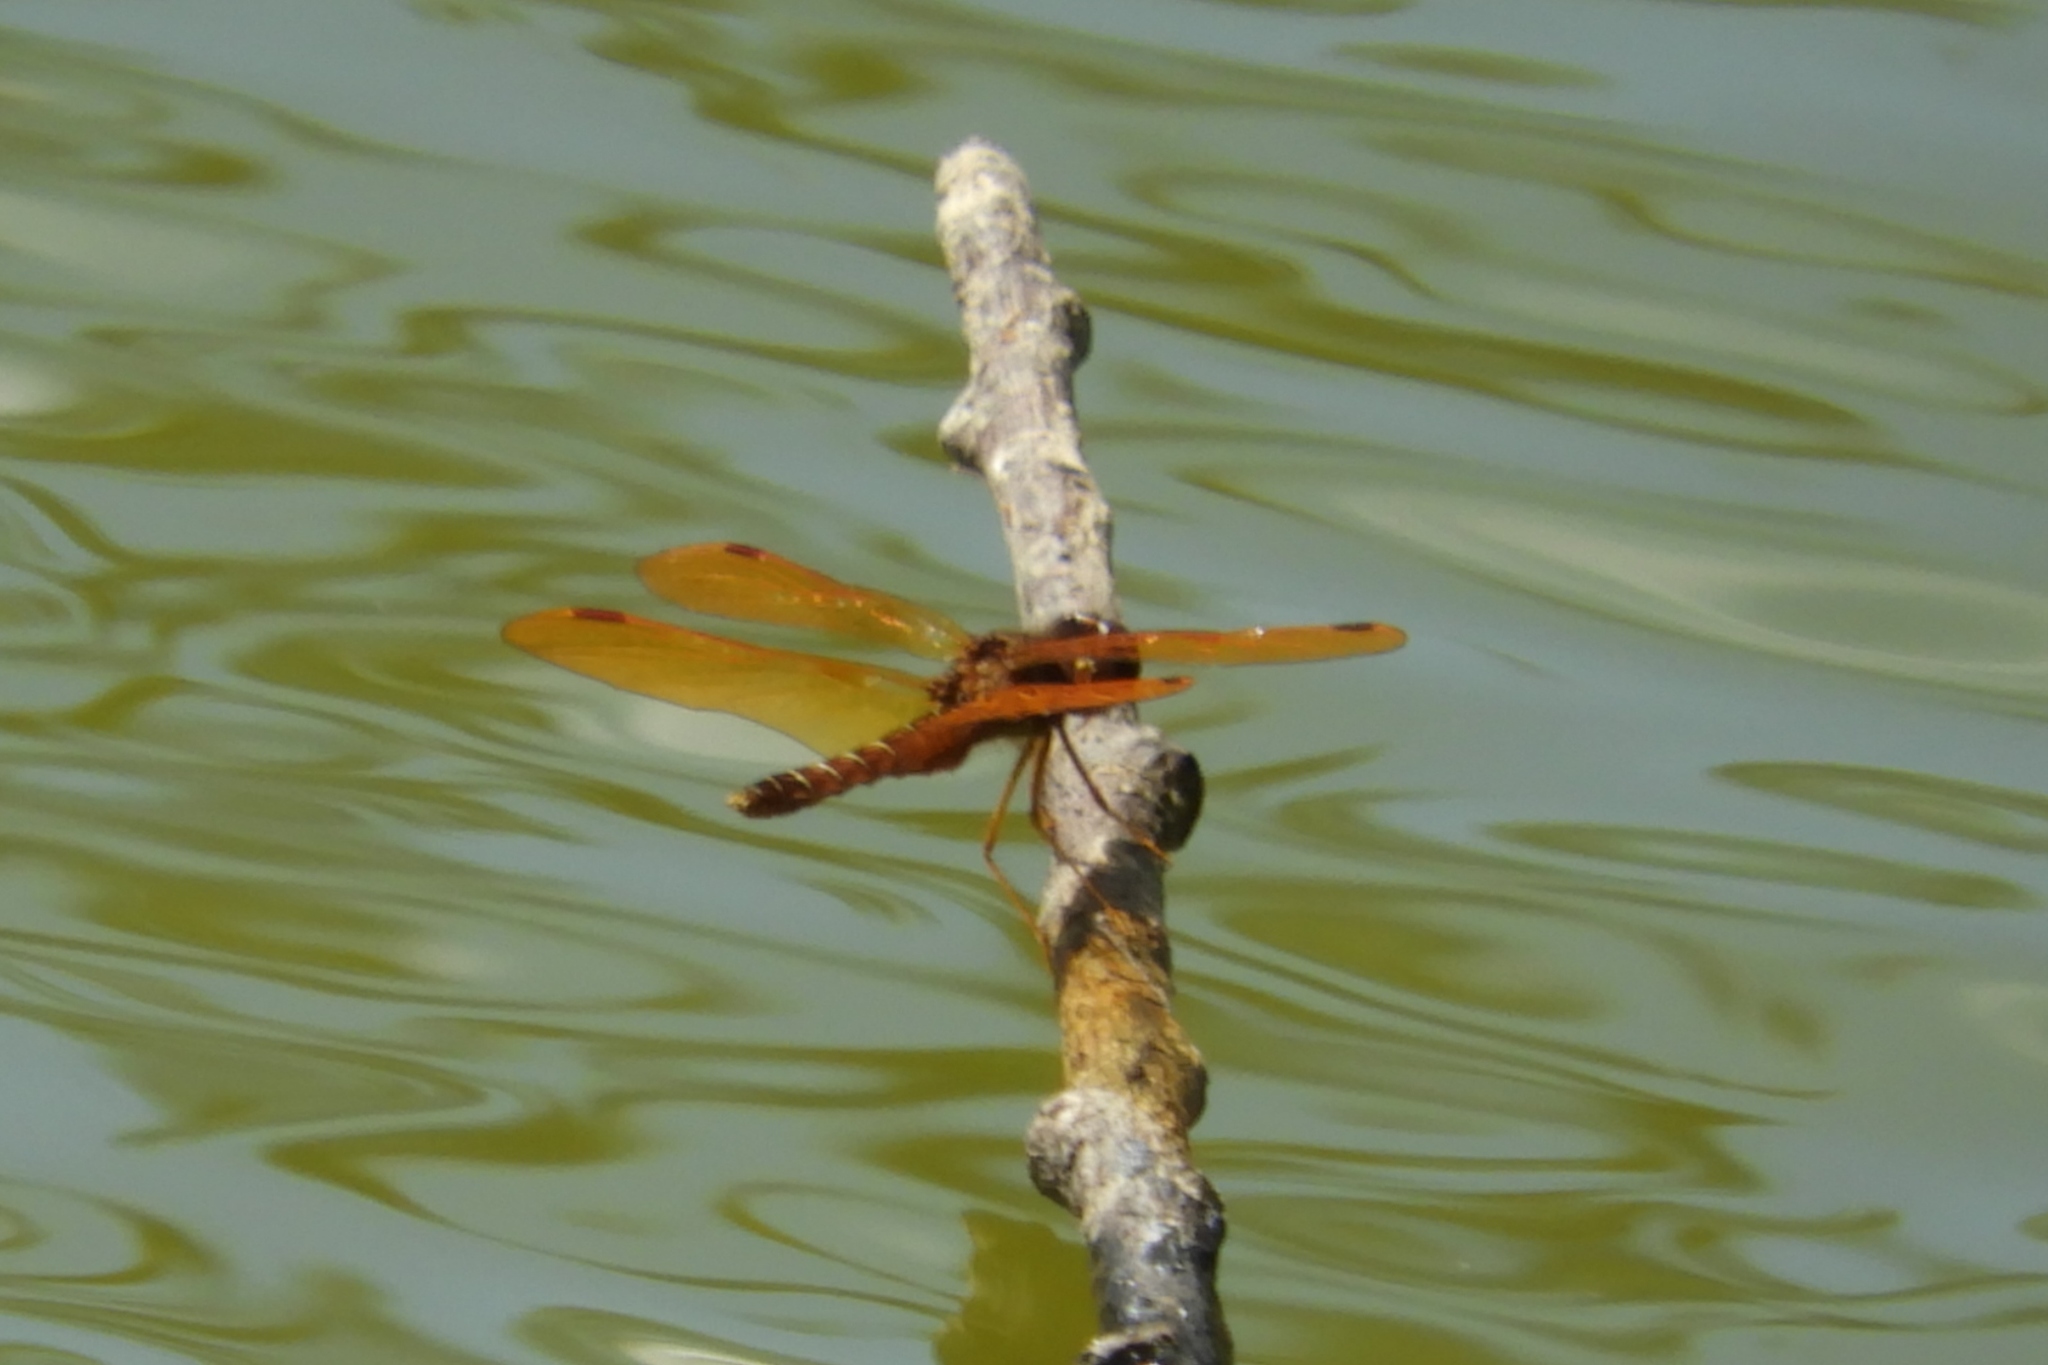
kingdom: Animalia
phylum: Arthropoda
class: Insecta
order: Odonata
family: Libellulidae
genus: Perithemis
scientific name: Perithemis tenera
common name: Eastern amberwing
